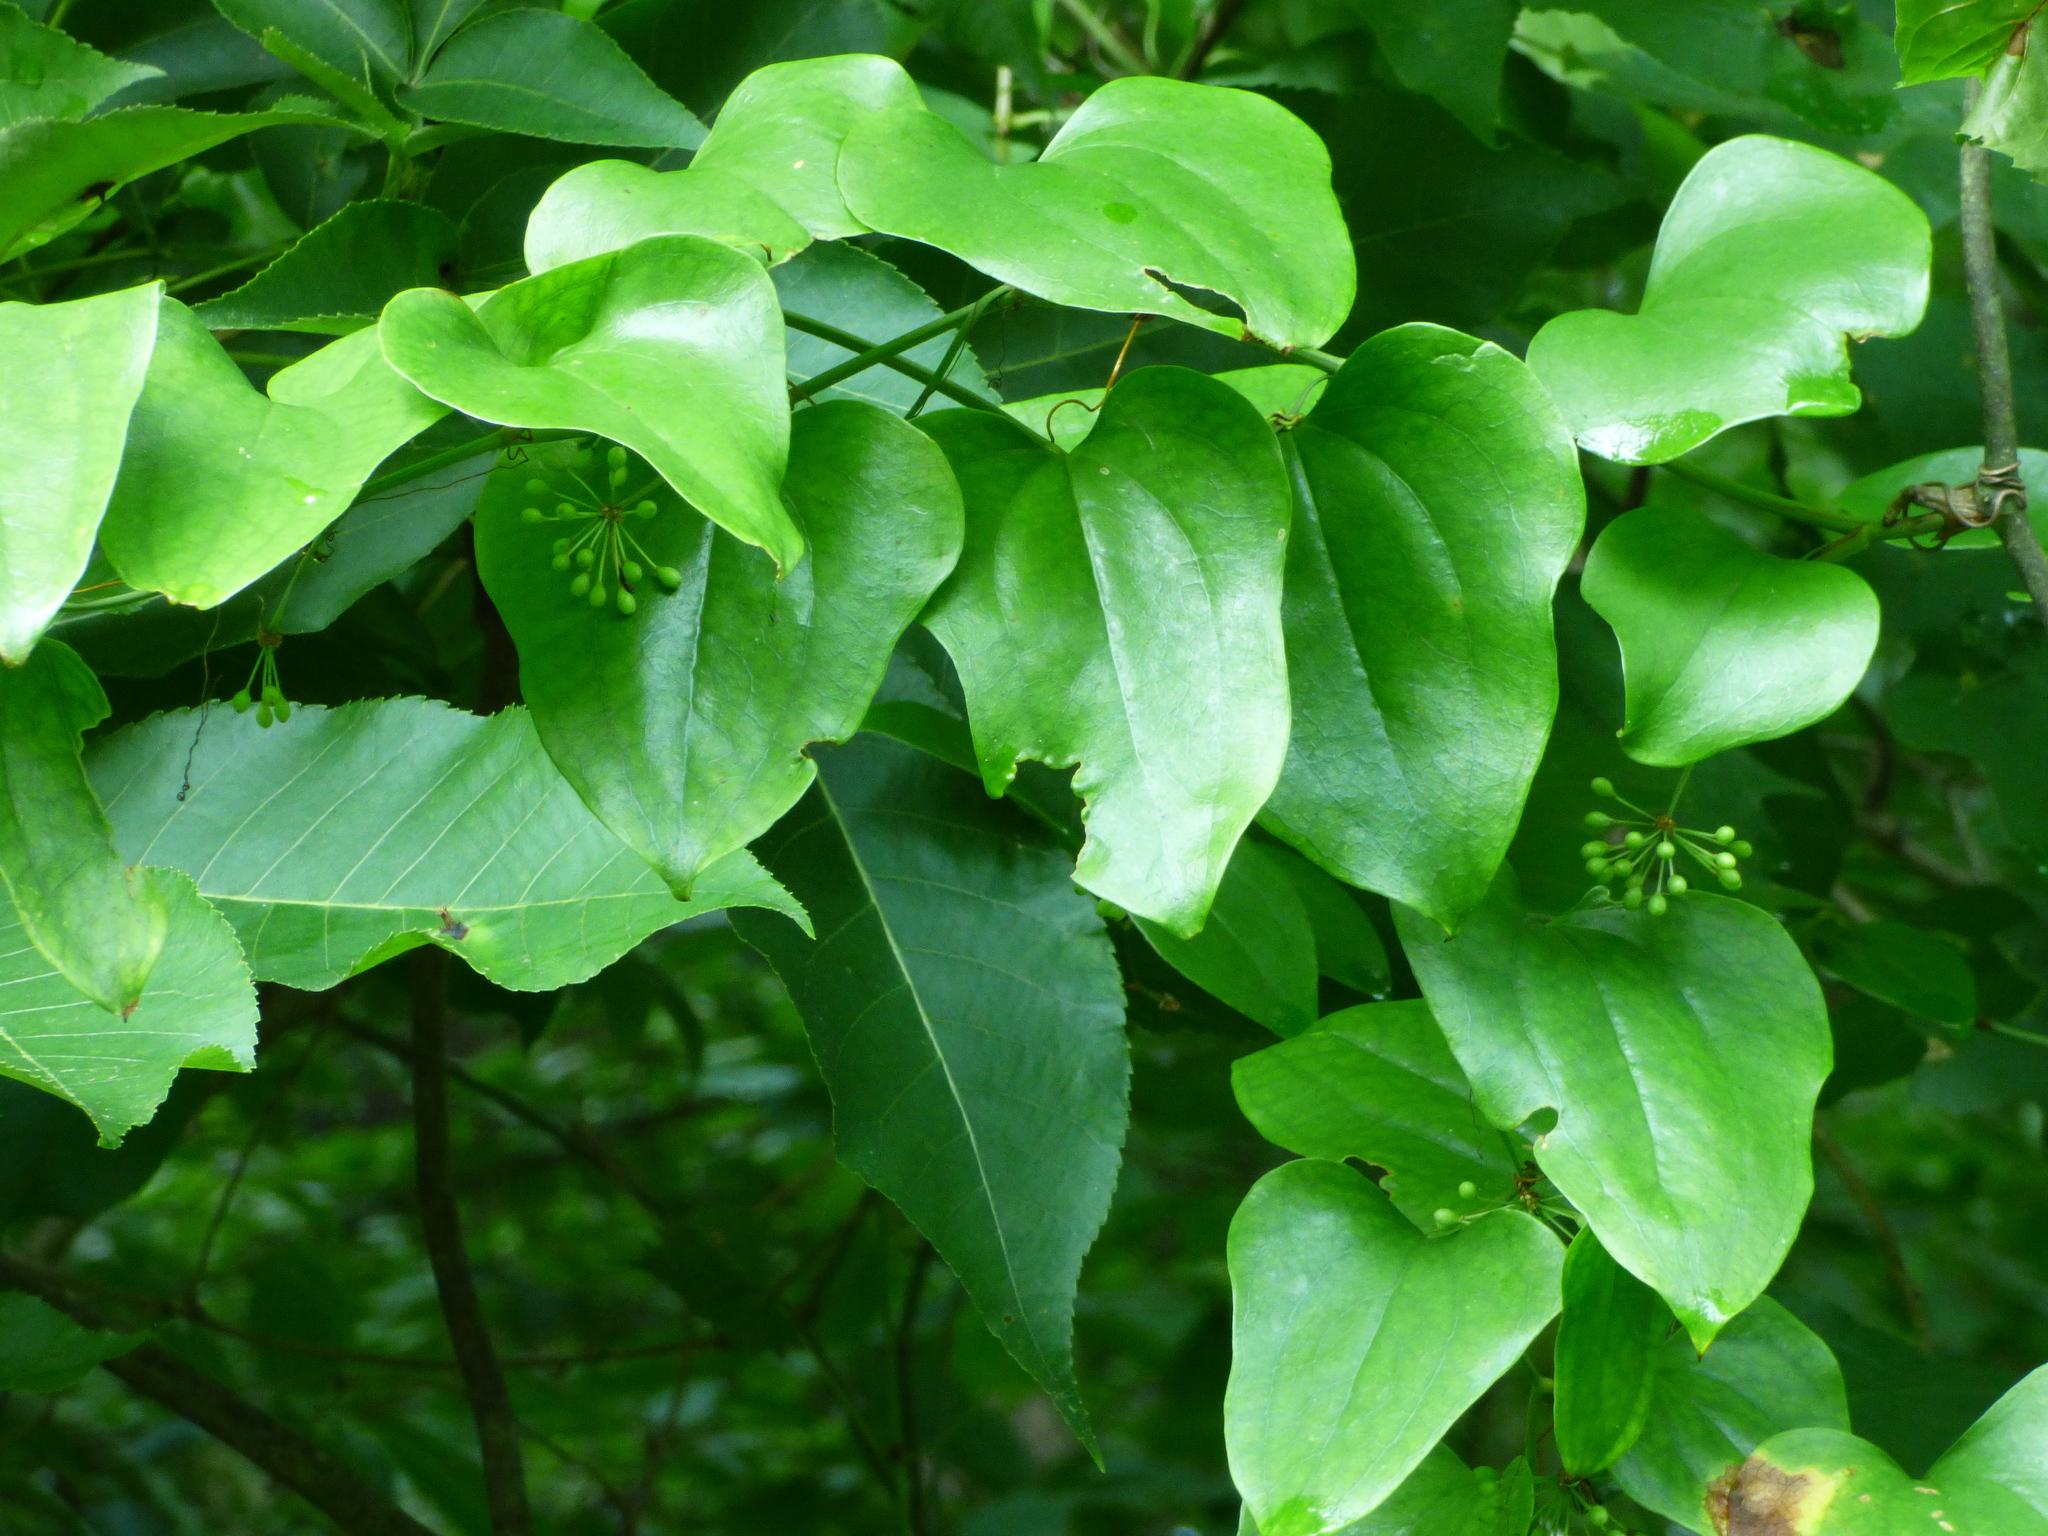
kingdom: Plantae
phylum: Tracheophyta
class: Liliopsida
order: Liliales
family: Smilacaceae
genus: Smilax
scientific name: Smilax rotundifolia
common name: Bullbriar
